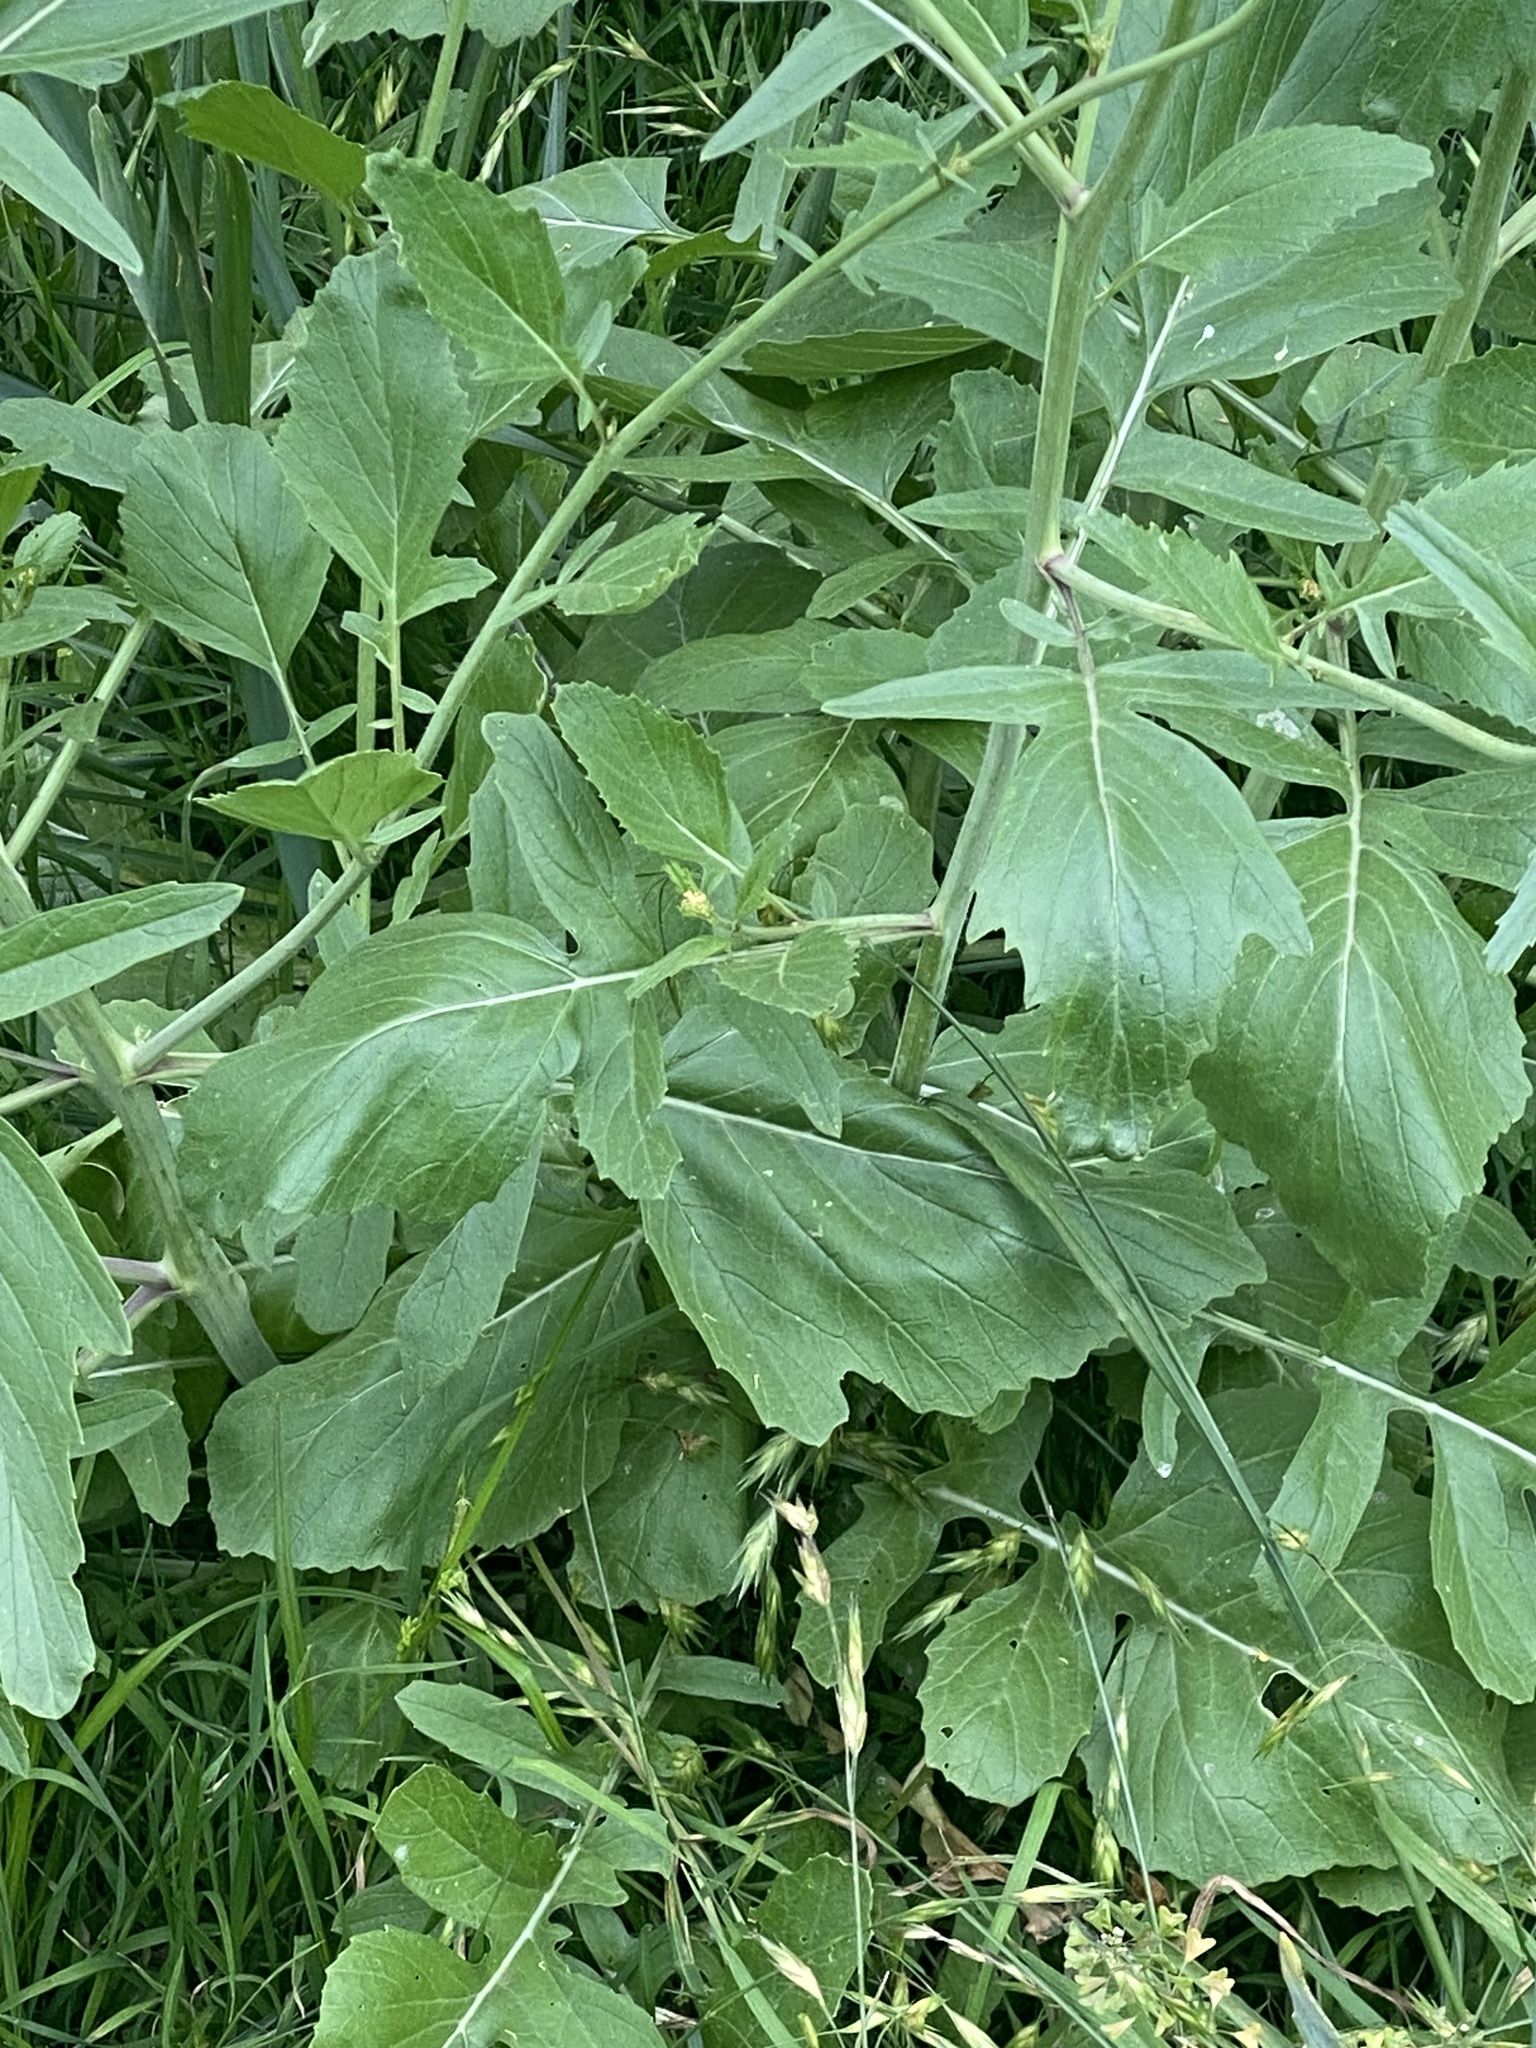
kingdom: Plantae
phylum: Tracheophyta
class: Magnoliopsida
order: Brassicales
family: Brassicaceae
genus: Rapistrum
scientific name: Rapistrum rugosum
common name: Annual bastardcabbage
